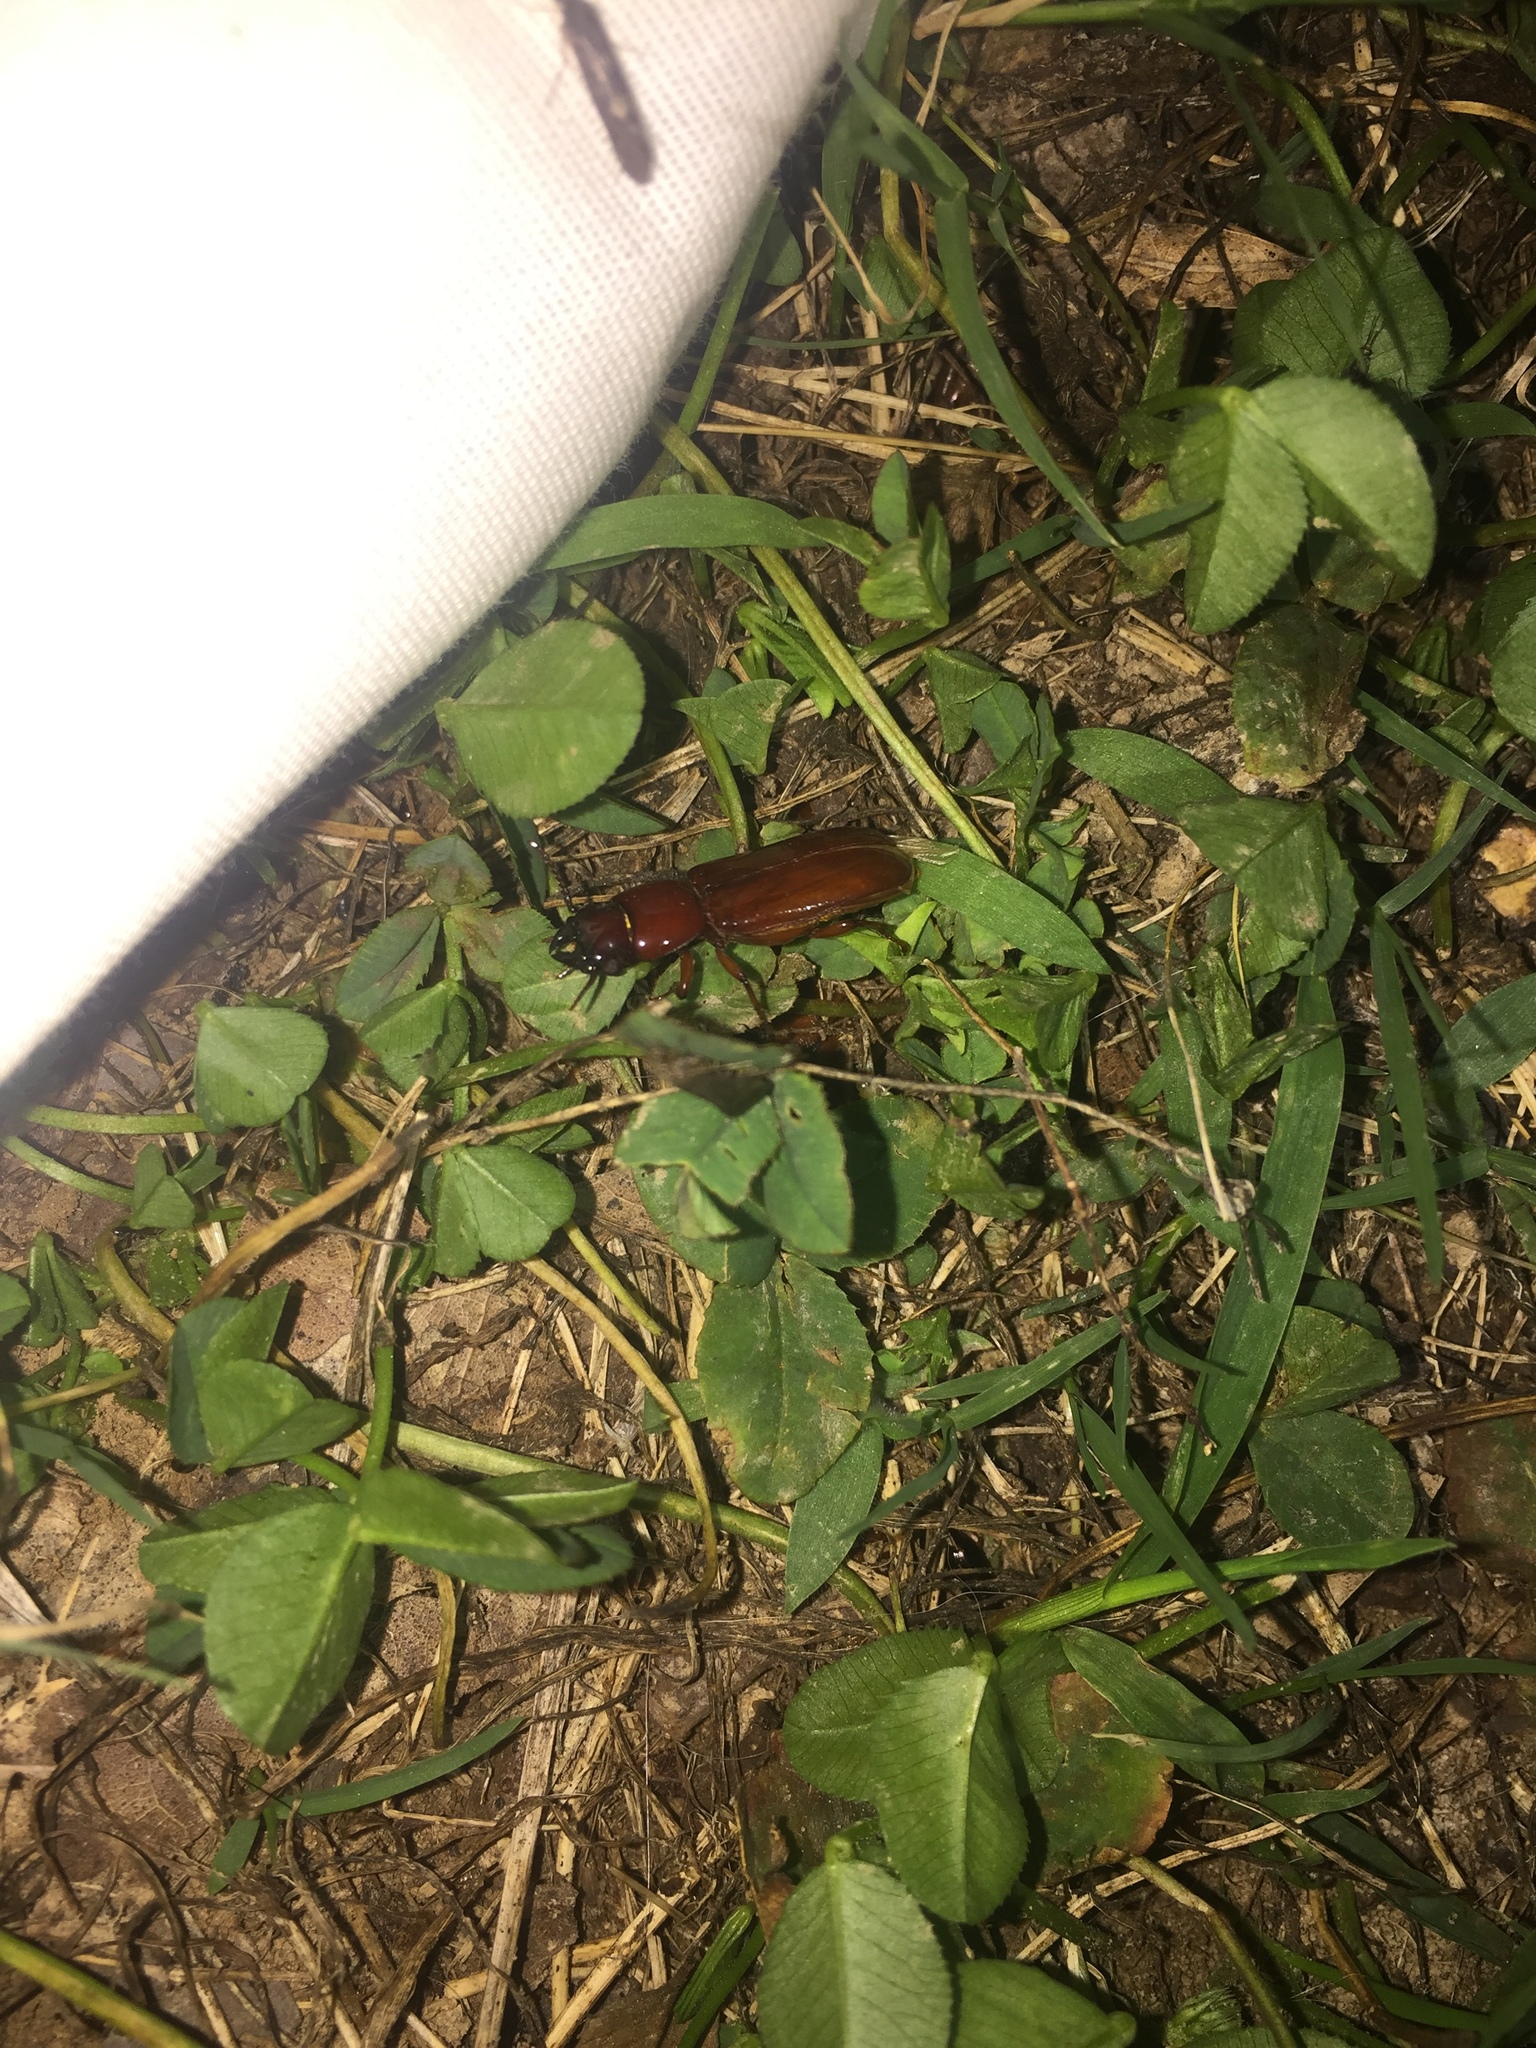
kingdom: Animalia
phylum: Arthropoda
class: Insecta
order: Coleoptera
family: Cerambycidae
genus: Neandra
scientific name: Neandra brunnea
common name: Pole borer
